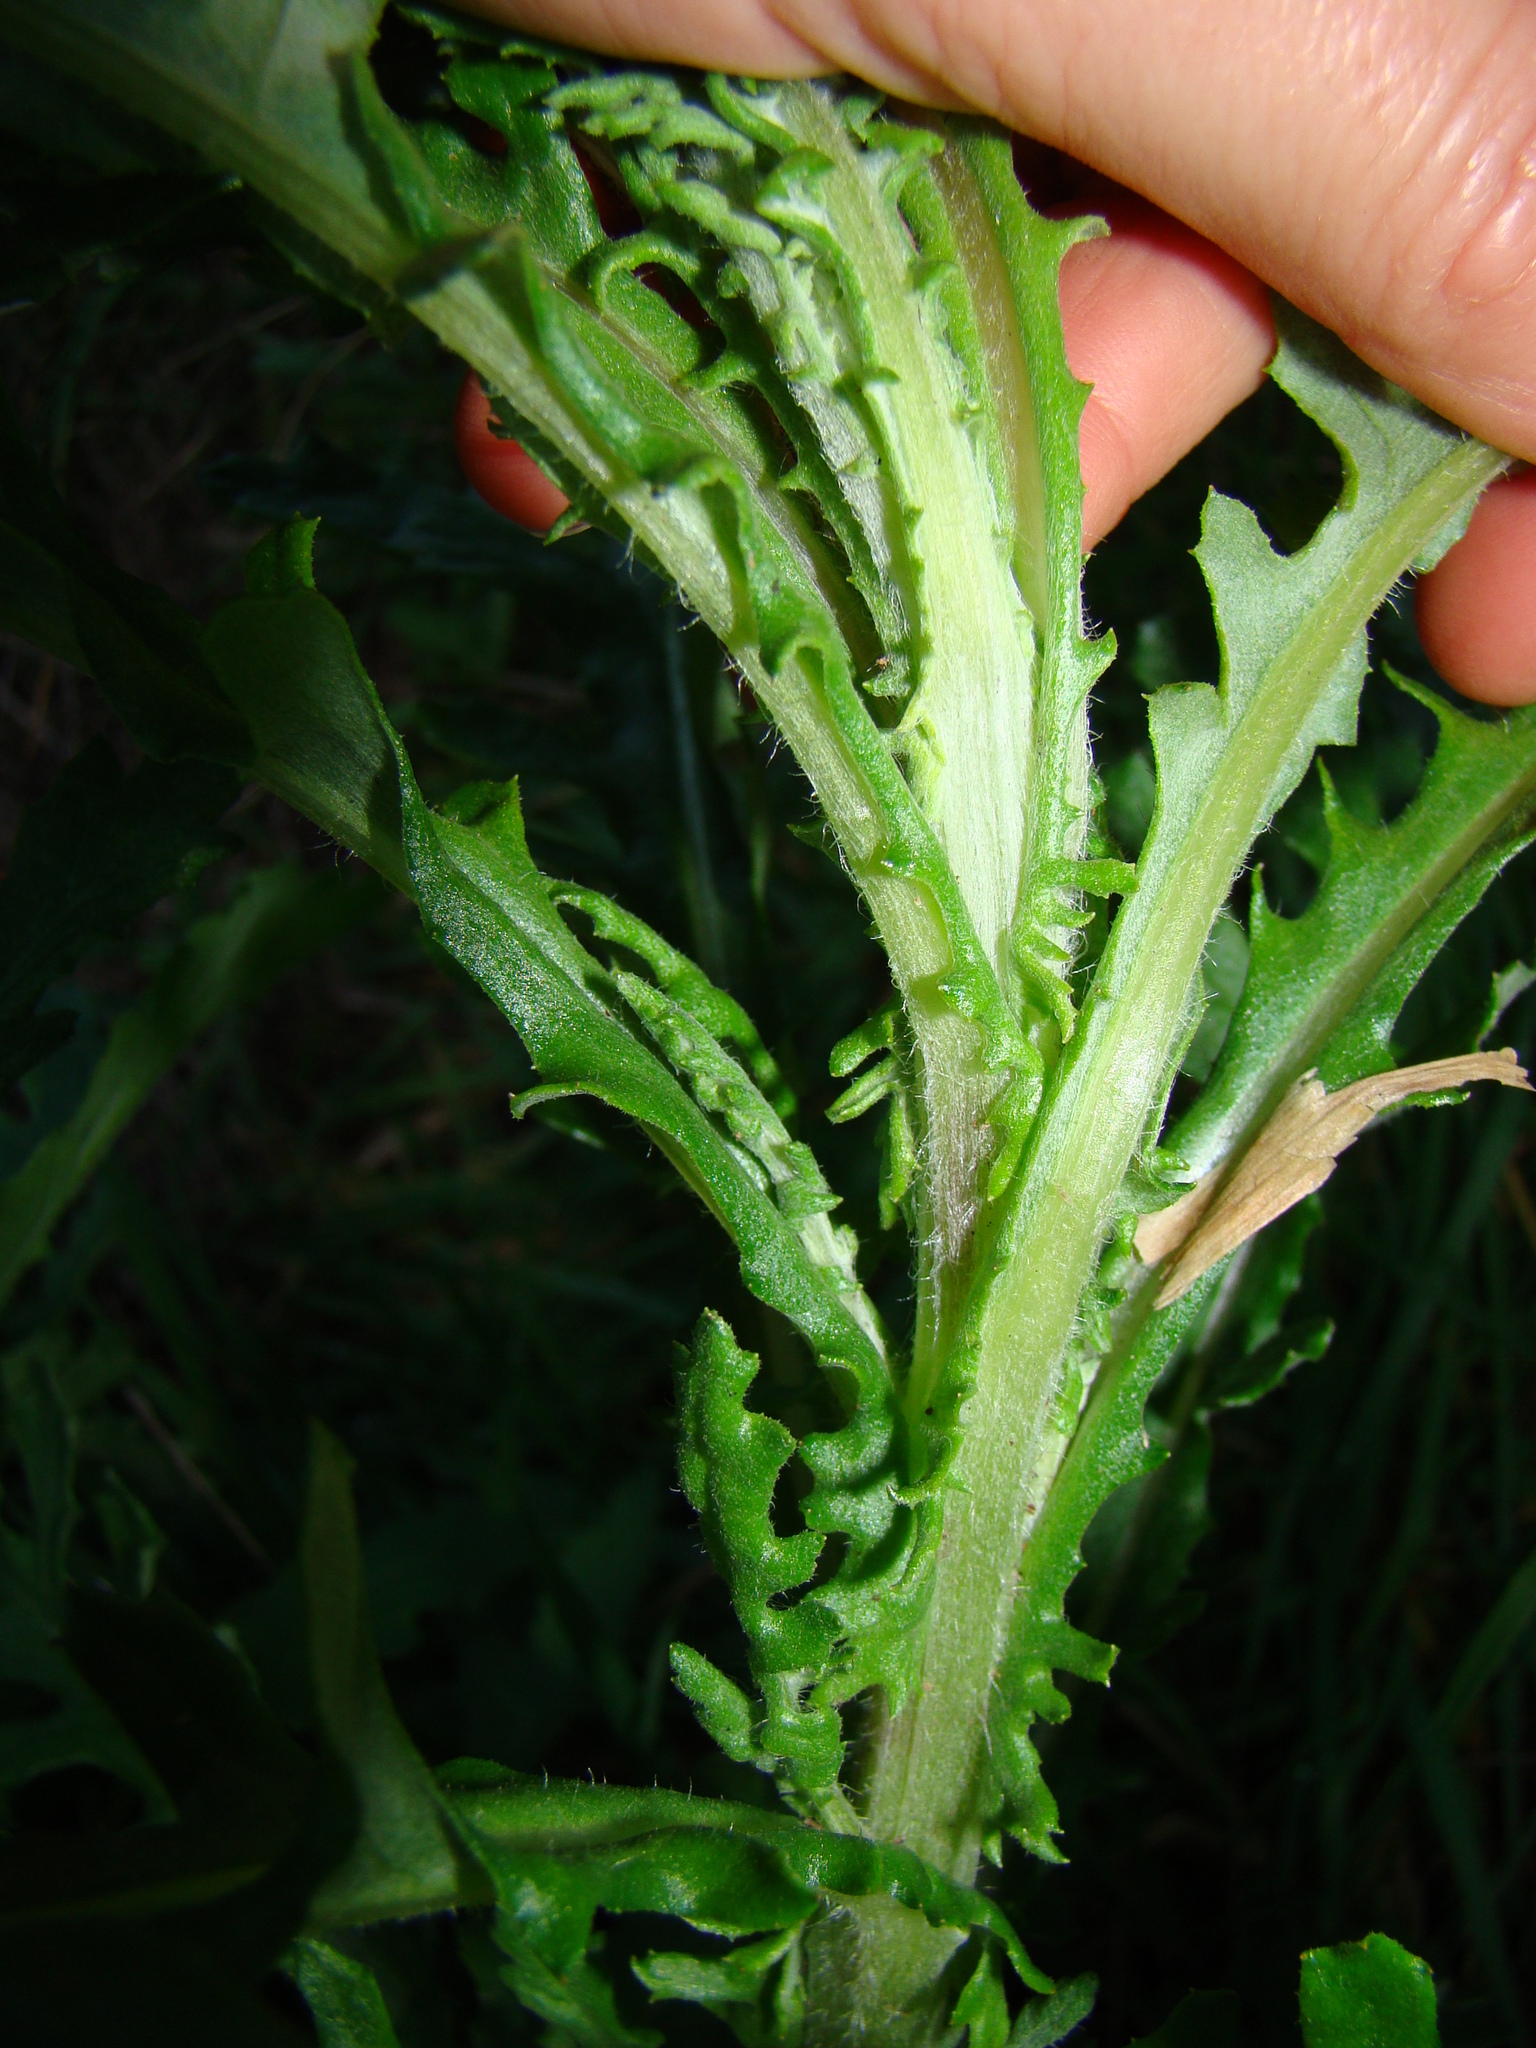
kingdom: Plantae
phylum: Tracheophyta
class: Magnoliopsida
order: Asterales
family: Asteraceae
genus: Senecio
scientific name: Senecio glomeratus
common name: Cutleaf burnweed
